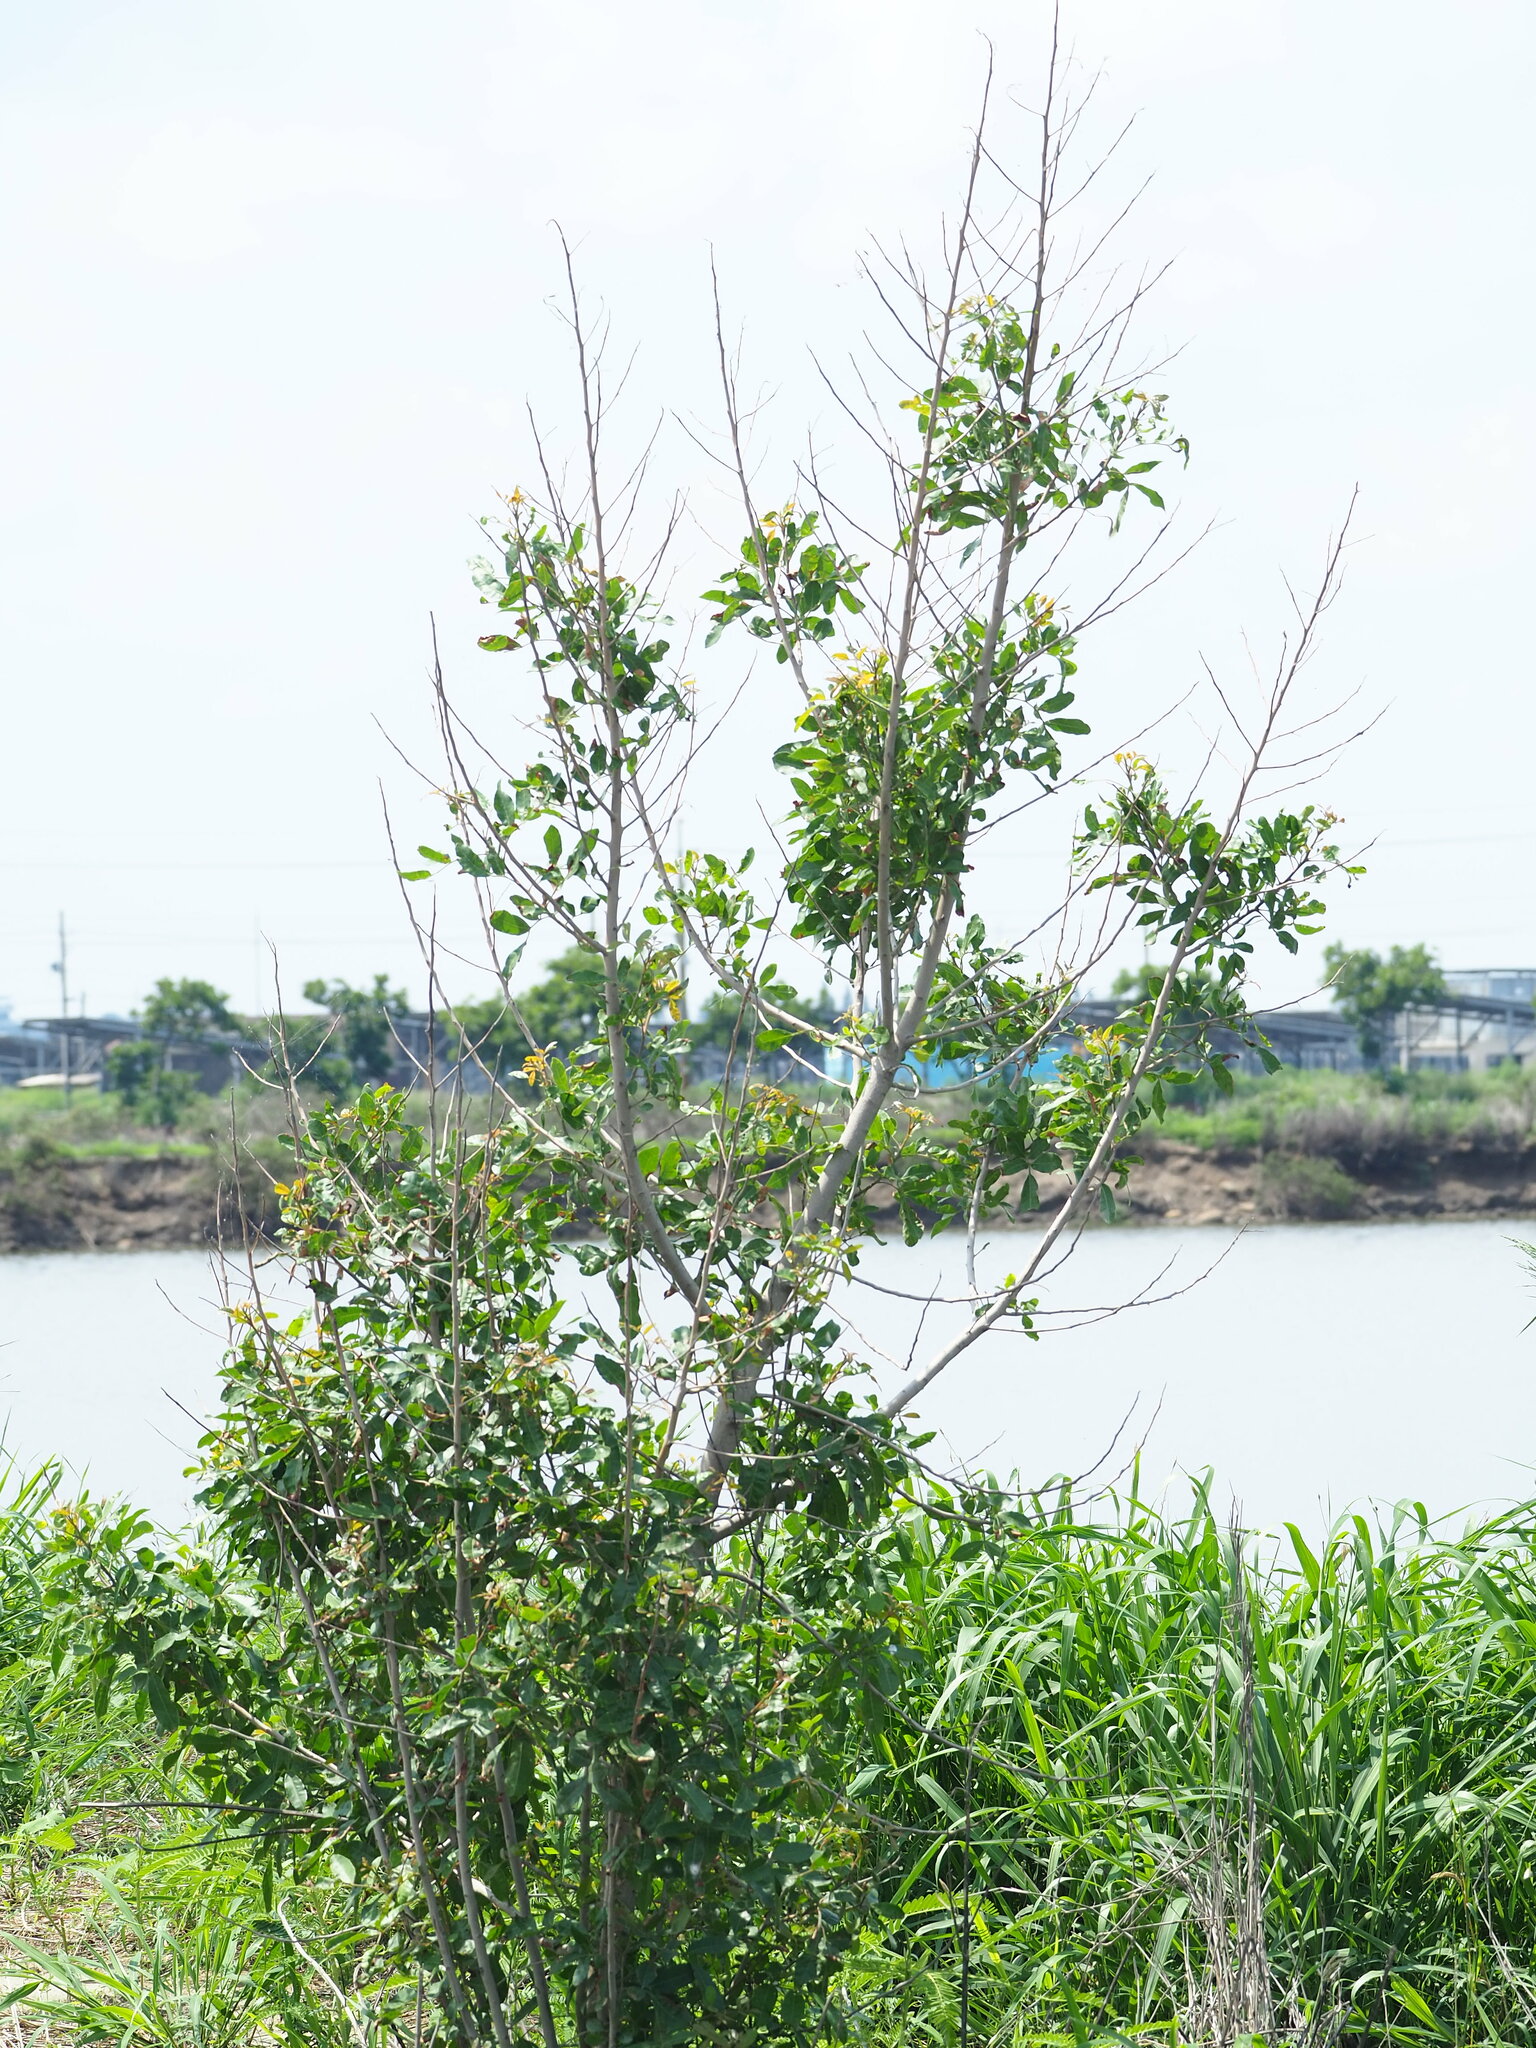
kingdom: Plantae
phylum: Tracheophyta
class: Magnoliopsida
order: Sapindales
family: Anacardiaceae
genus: Schinus
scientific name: Schinus terebinthifolia
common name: Brazilian peppertree
